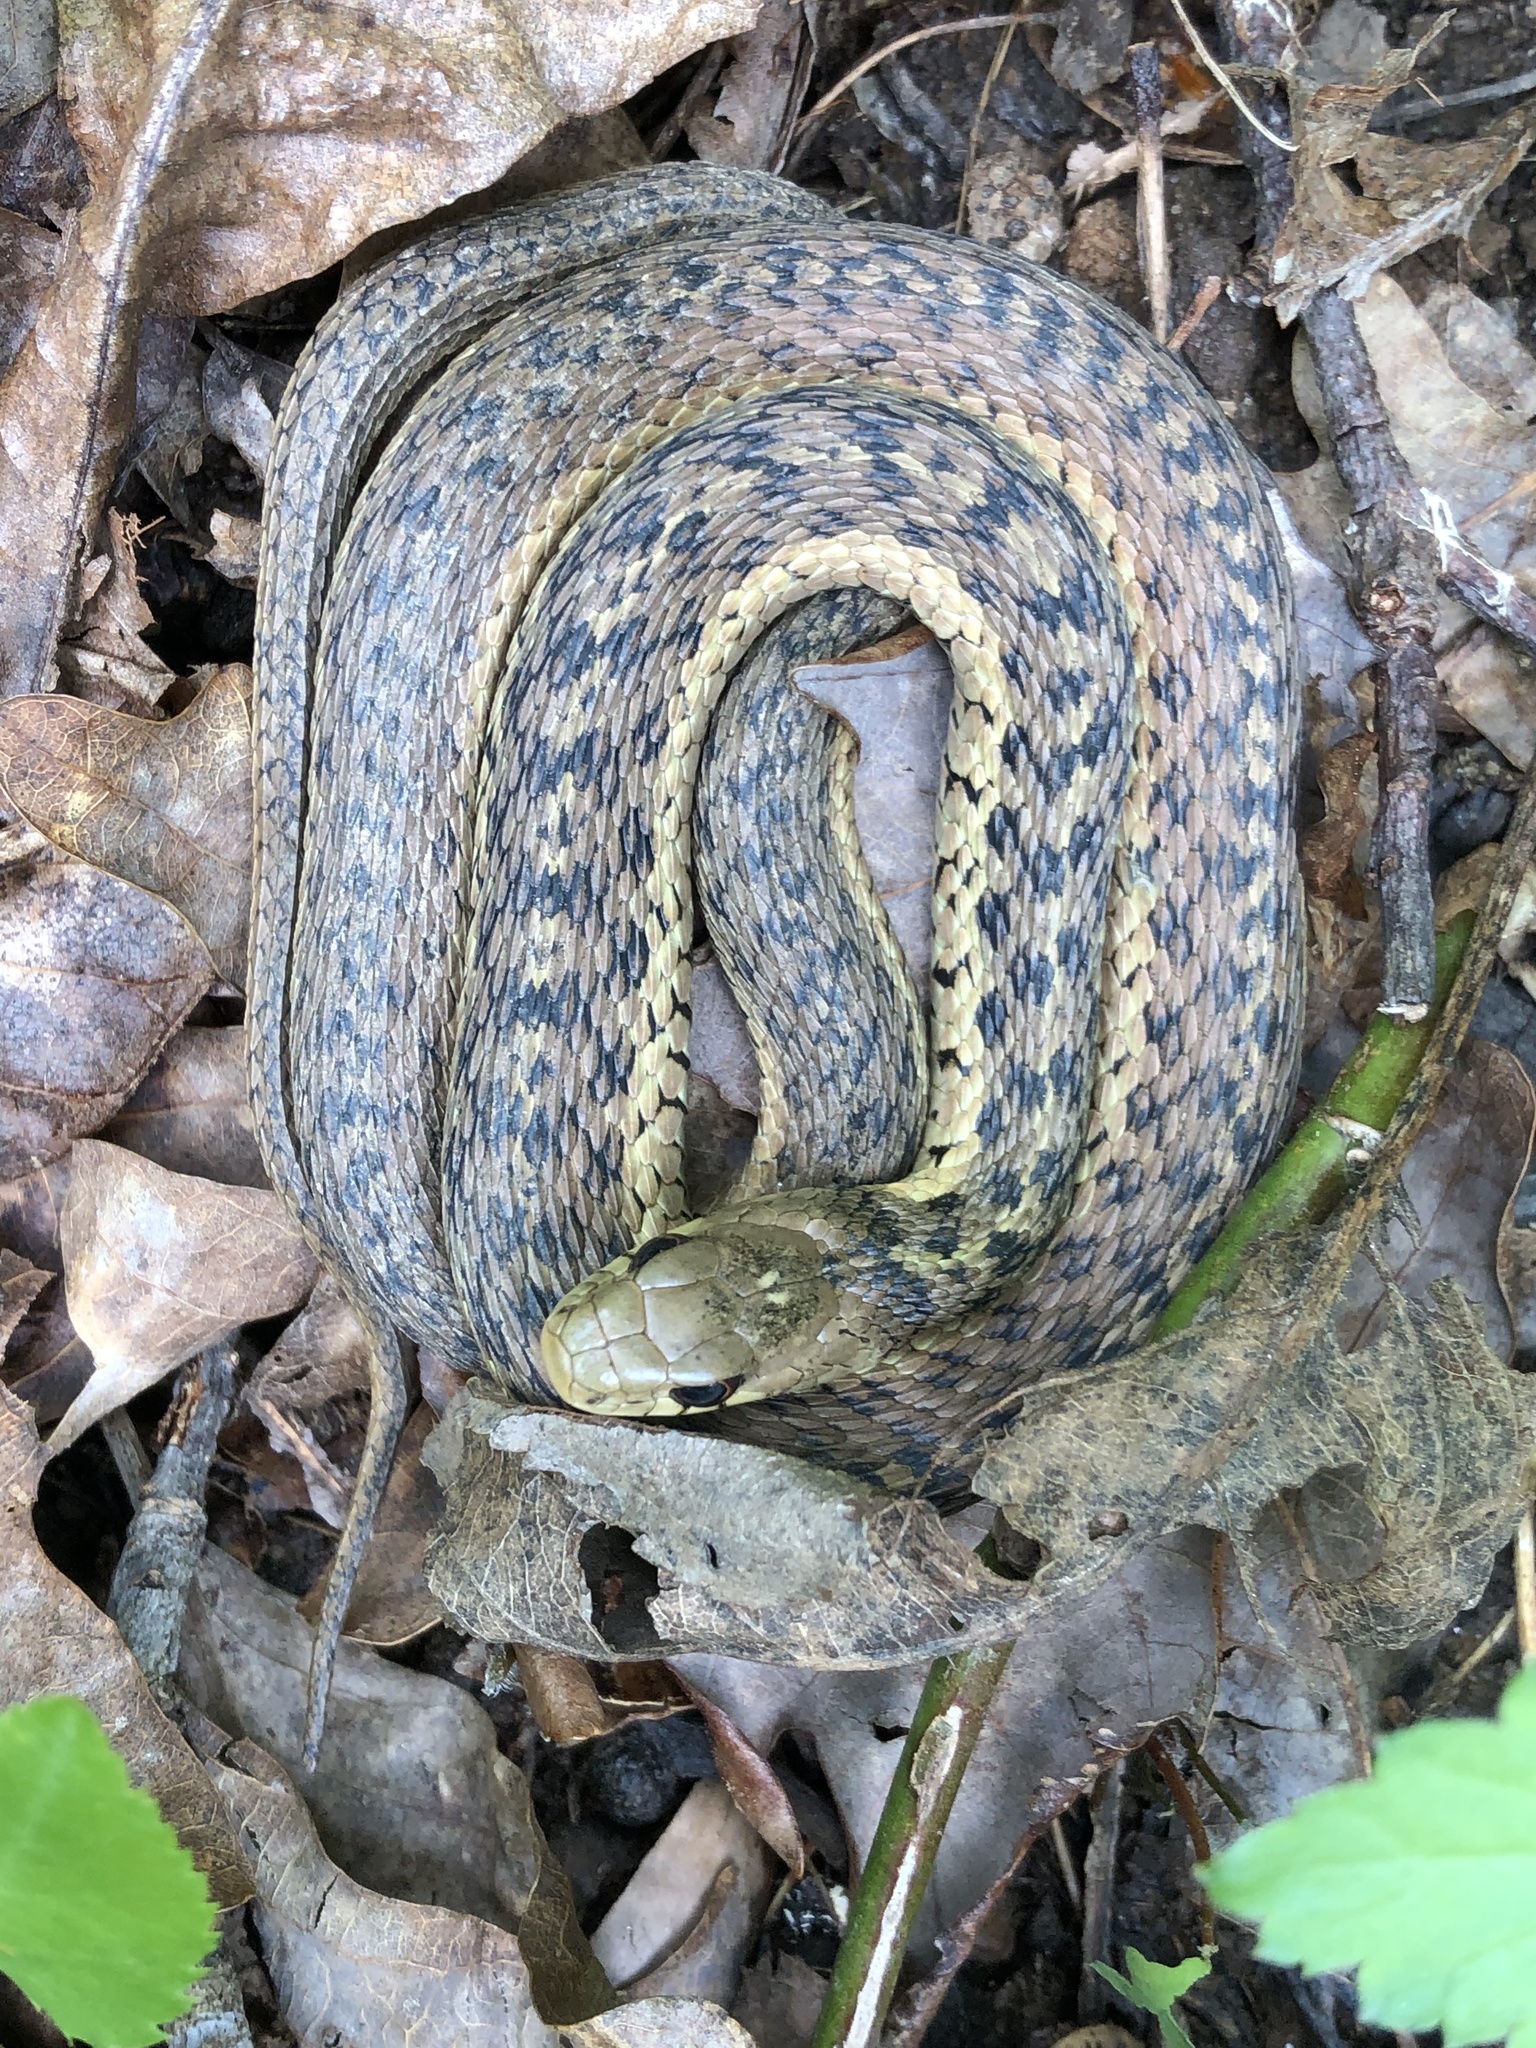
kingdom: Animalia
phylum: Chordata
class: Squamata
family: Colubridae
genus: Thamnophis
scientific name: Thamnophis sirtalis
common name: Common garter snake
